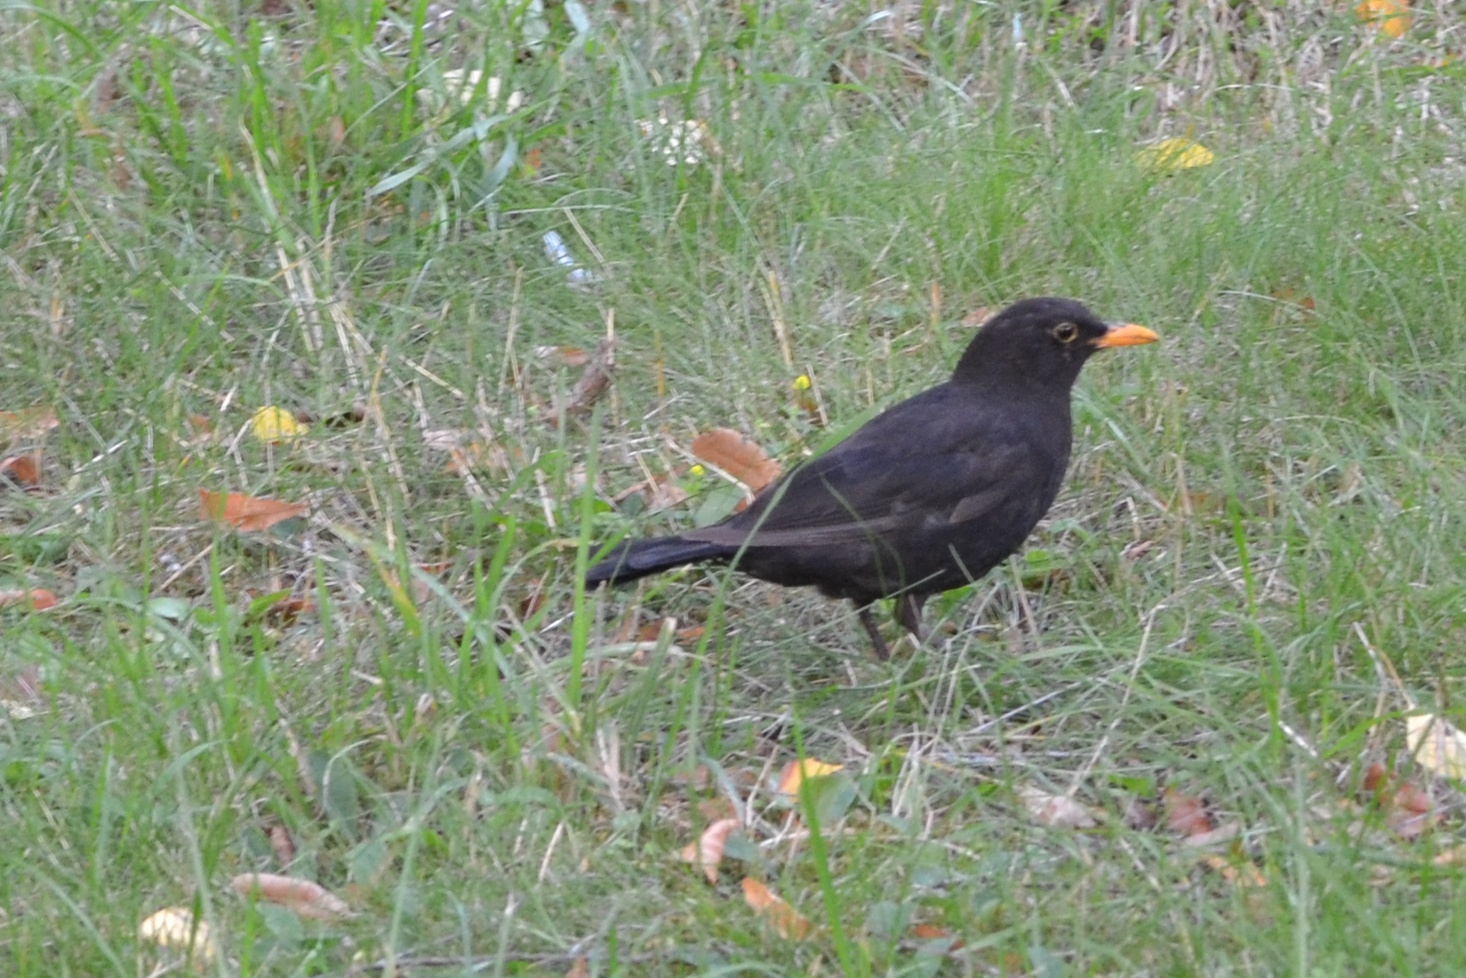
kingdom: Animalia
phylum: Chordata
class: Aves
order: Passeriformes
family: Turdidae
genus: Turdus
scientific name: Turdus merula
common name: Common blackbird
